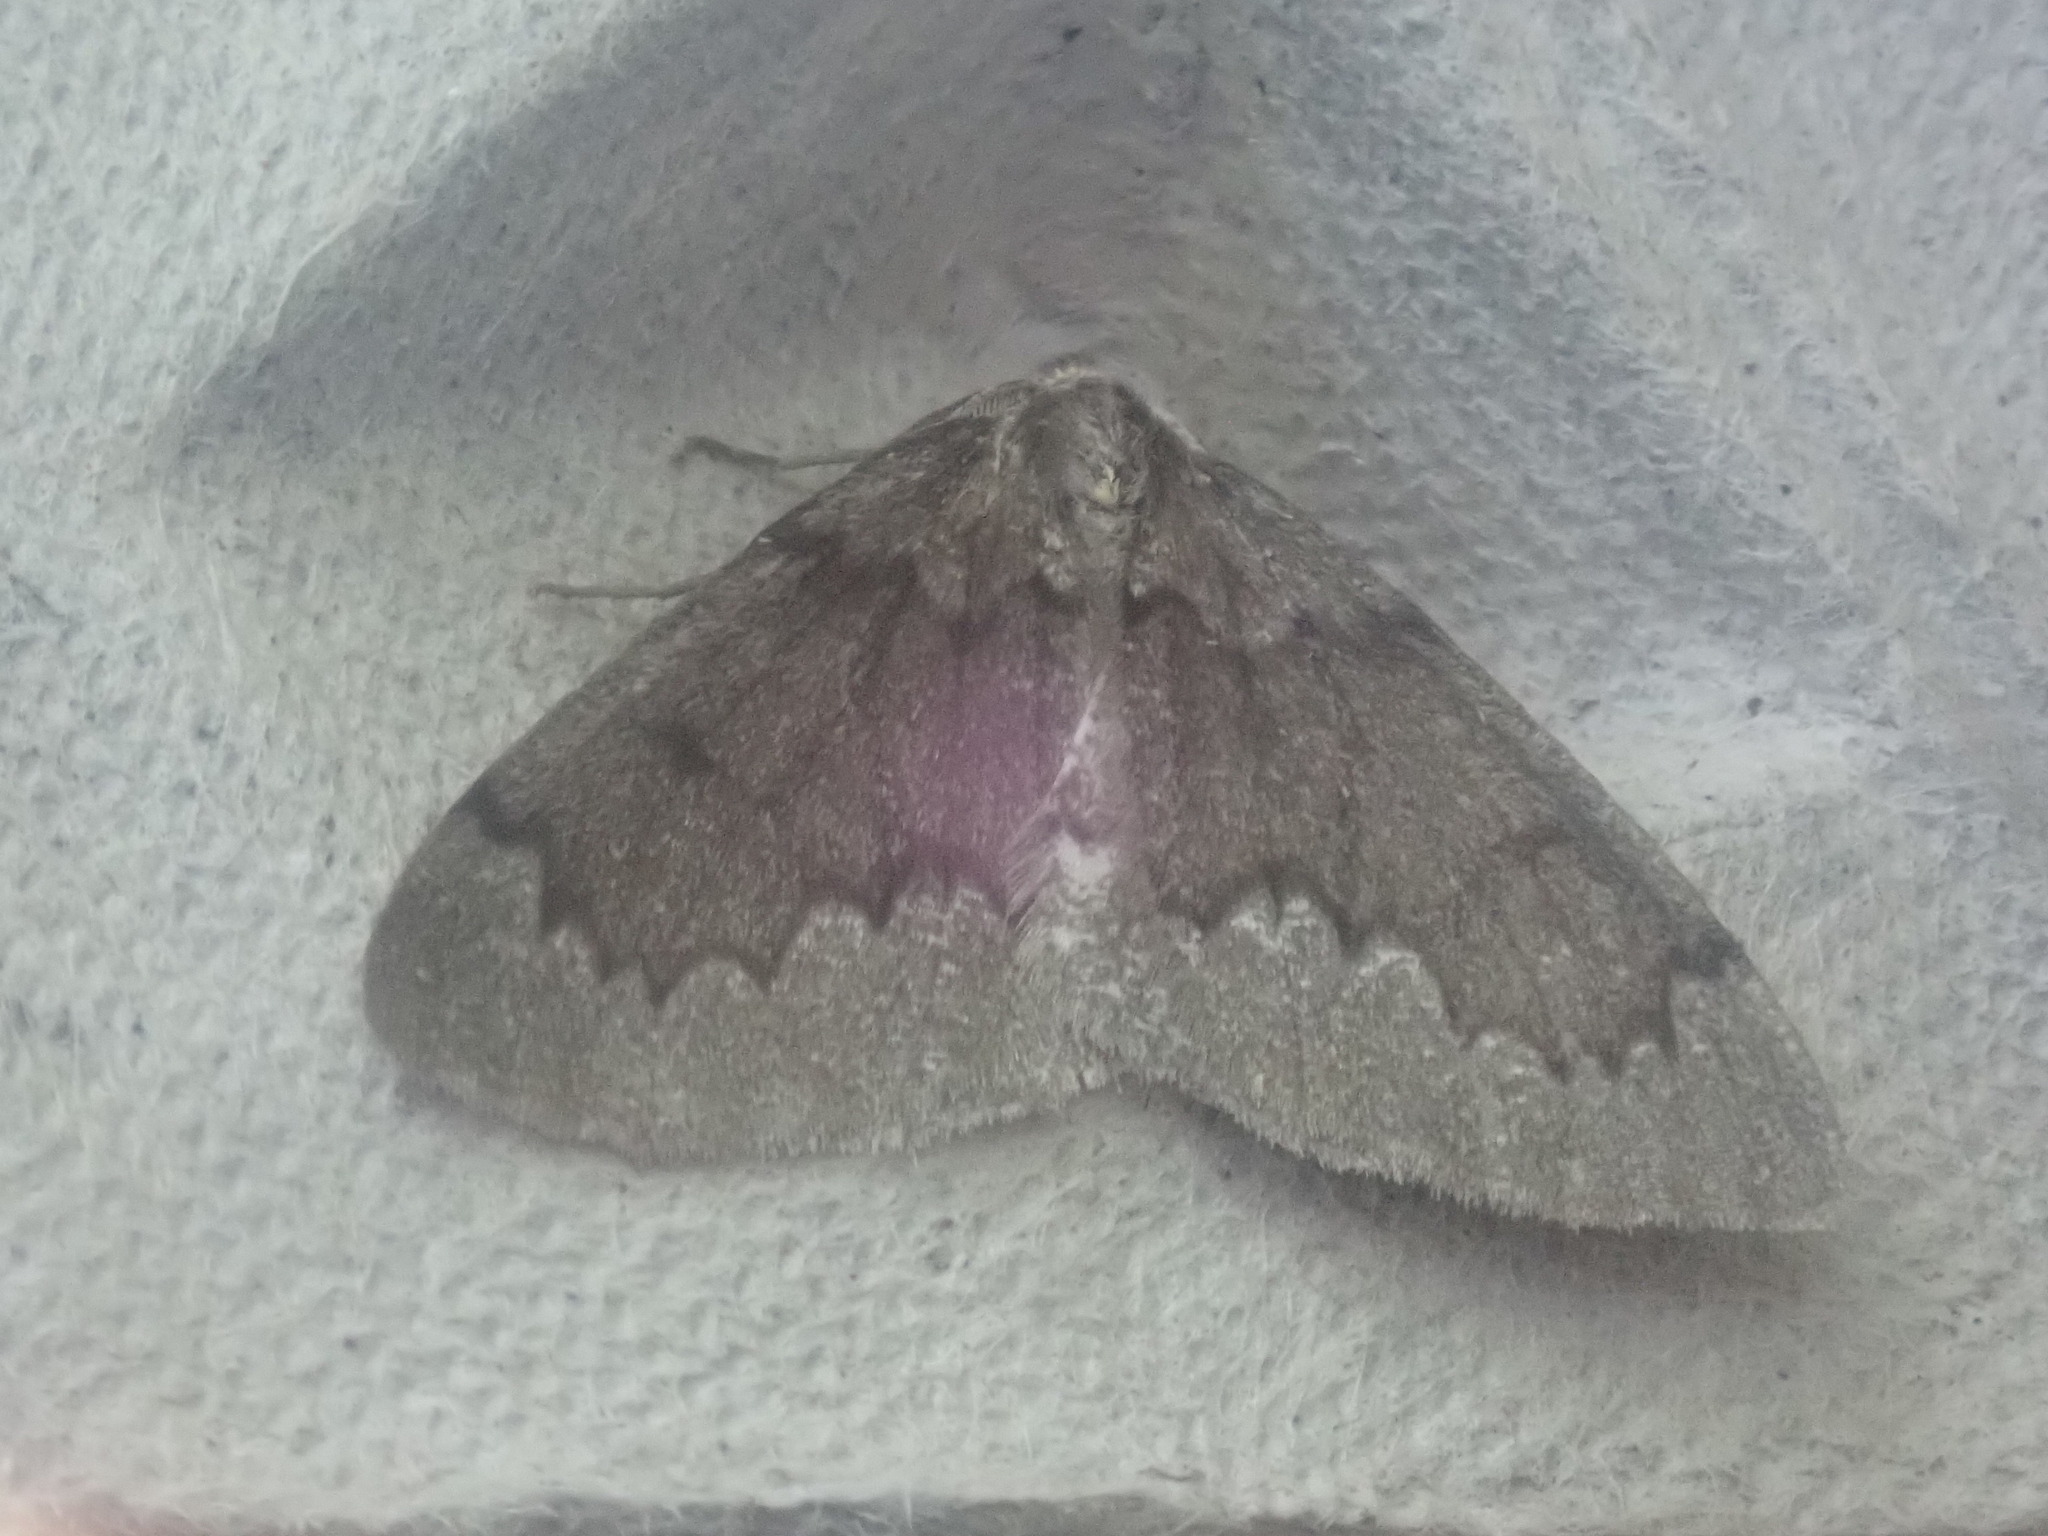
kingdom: Animalia
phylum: Arthropoda
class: Insecta
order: Lepidoptera
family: Geometridae
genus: Nepytia
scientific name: Nepytia canosaria
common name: False hemlock looper
